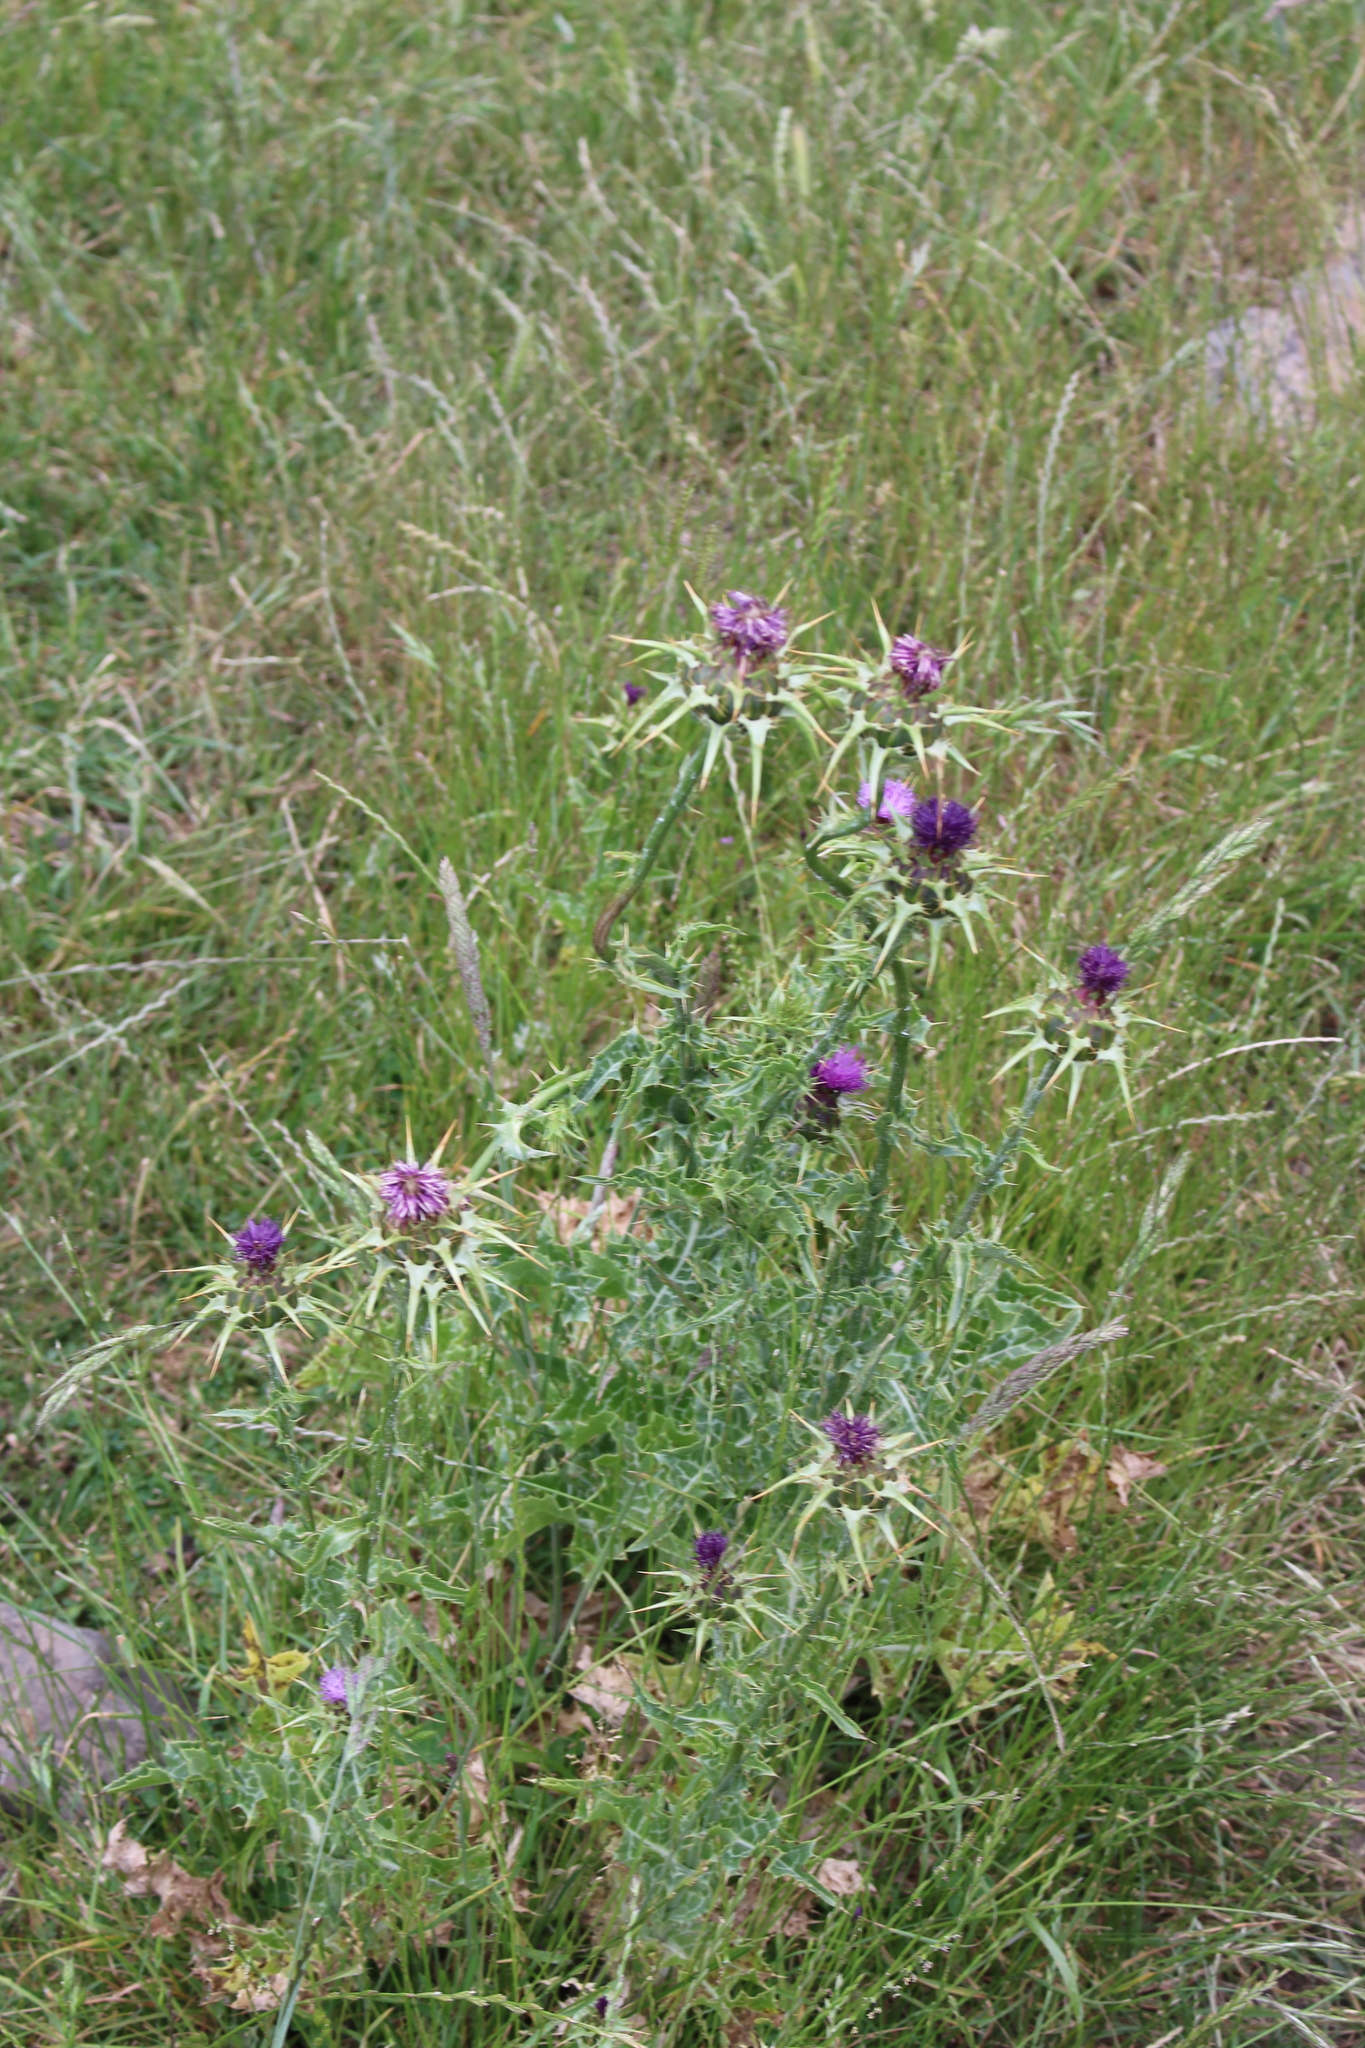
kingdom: Plantae
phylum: Tracheophyta
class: Magnoliopsida
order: Asterales
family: Asteraceae
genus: Silybum
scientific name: Silybum marianum
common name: Milk thistle
